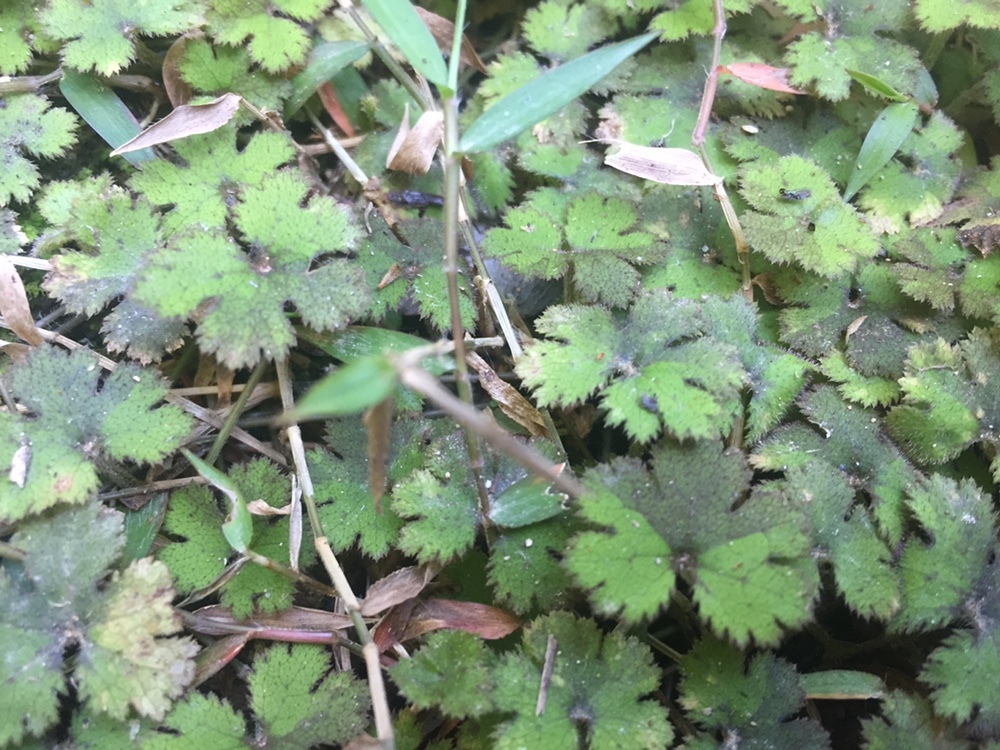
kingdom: Plantae
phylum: Tracheophyta
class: Magnoliopsida
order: Apiales
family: Araliaceae
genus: Hydrocotyle
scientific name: Hydrocotyle elongata
